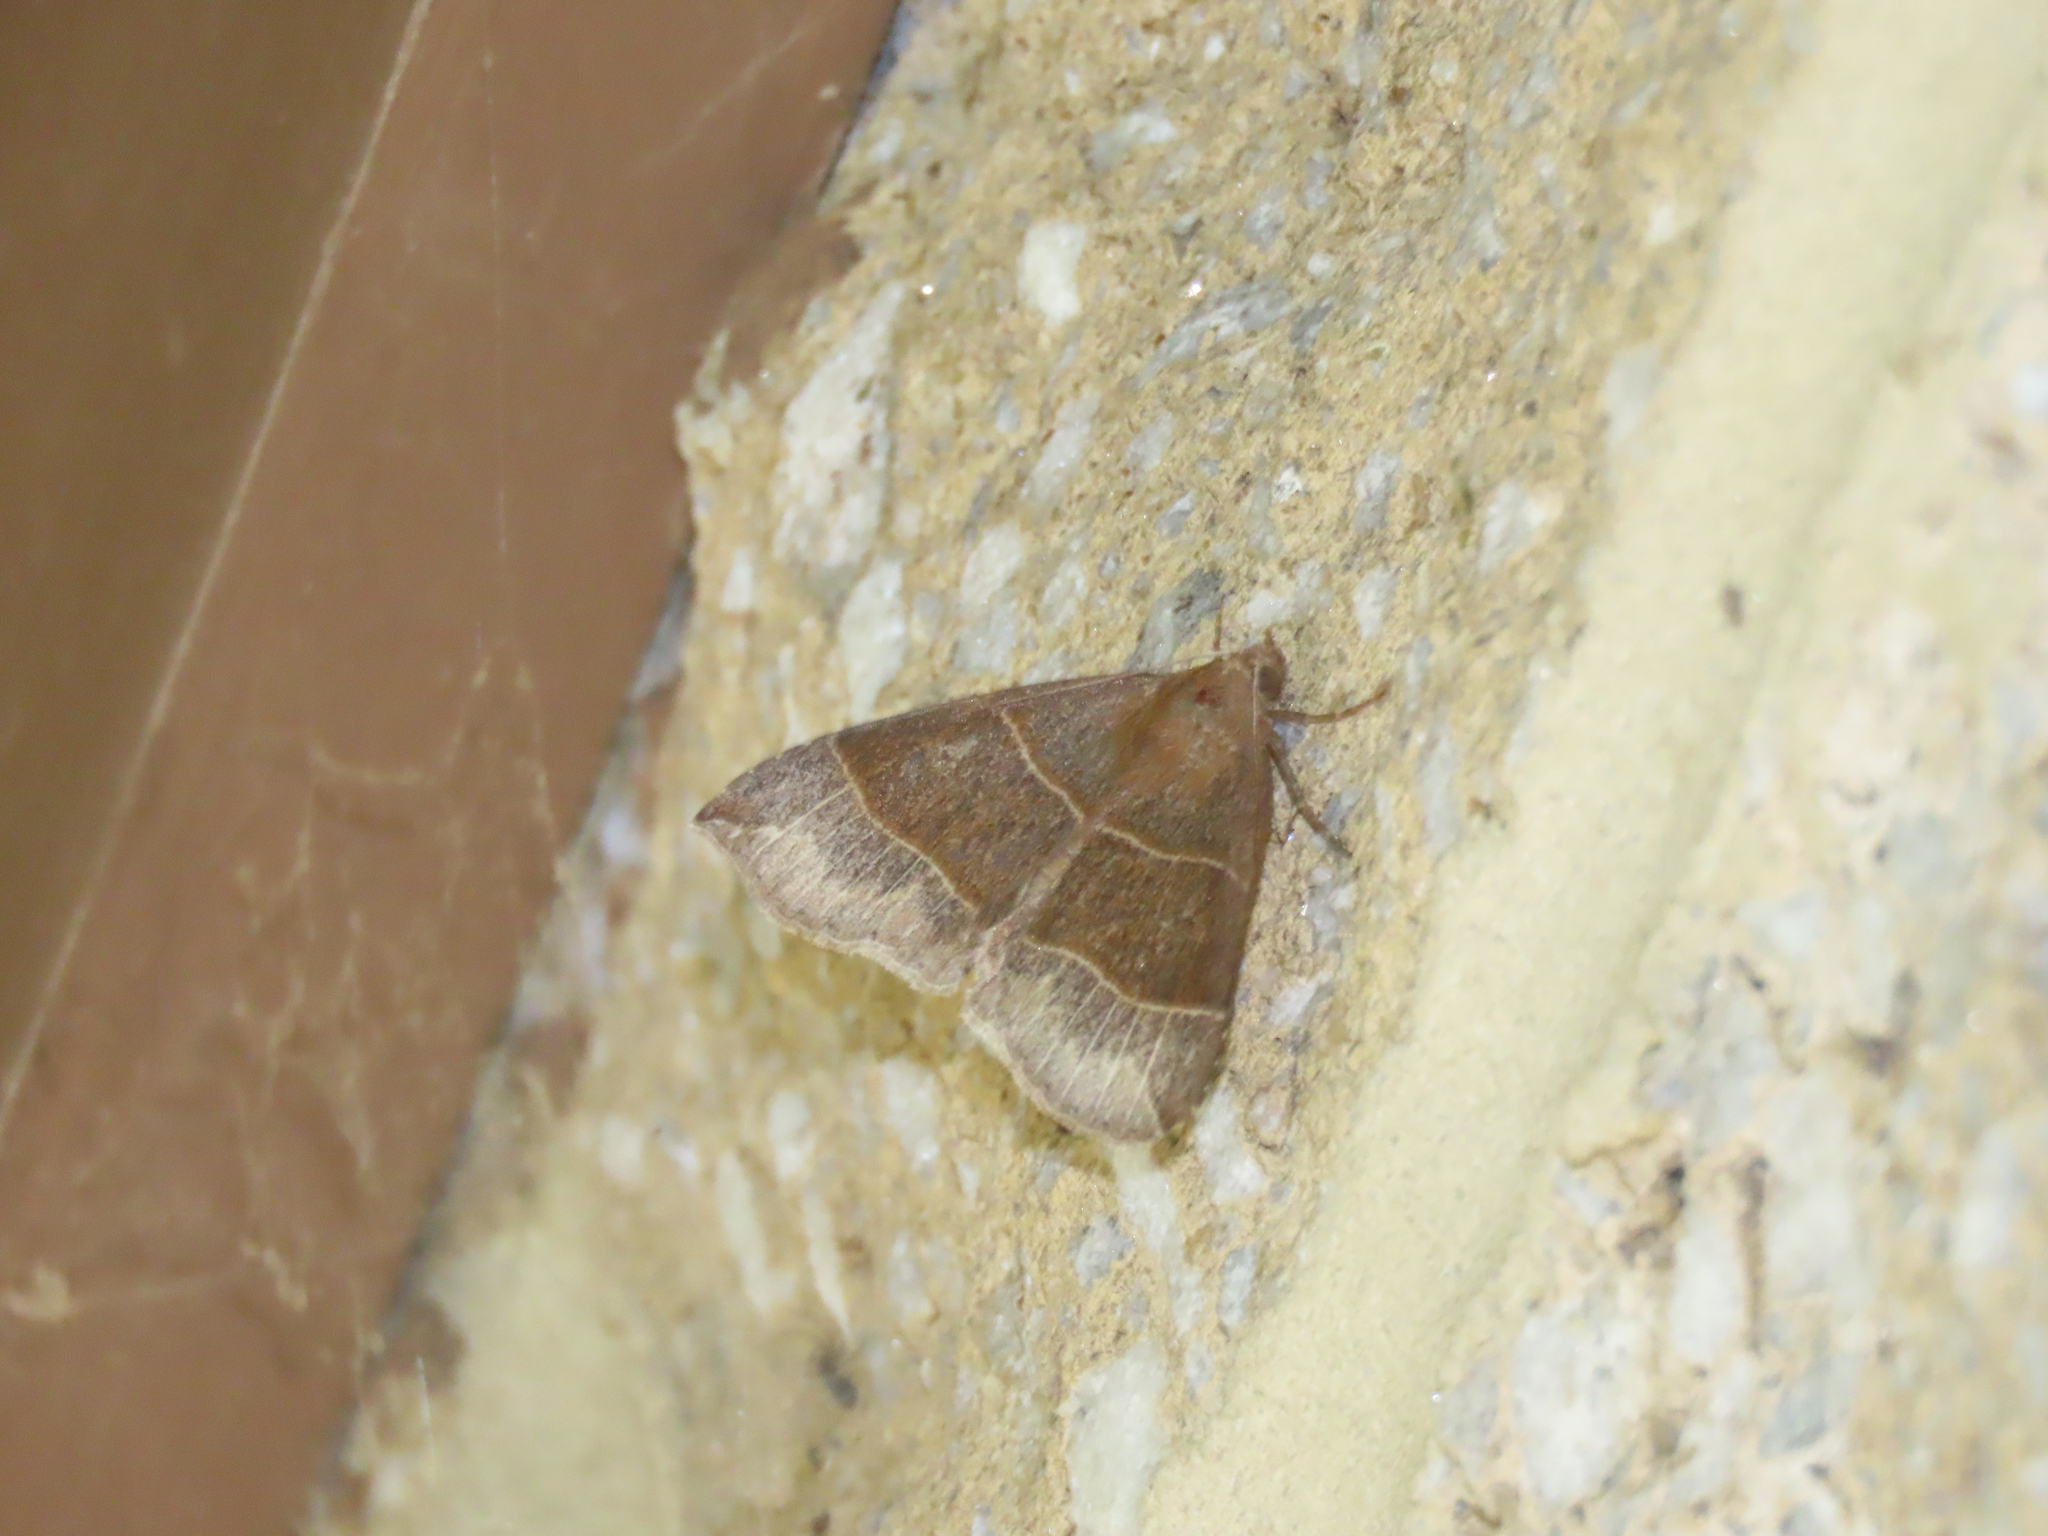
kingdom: Animalia
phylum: Arthropoda
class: Insecta
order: Lepidoptera
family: Erebidae
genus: Parallelia
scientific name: Parallelia bistriaris
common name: Maple looper moth
